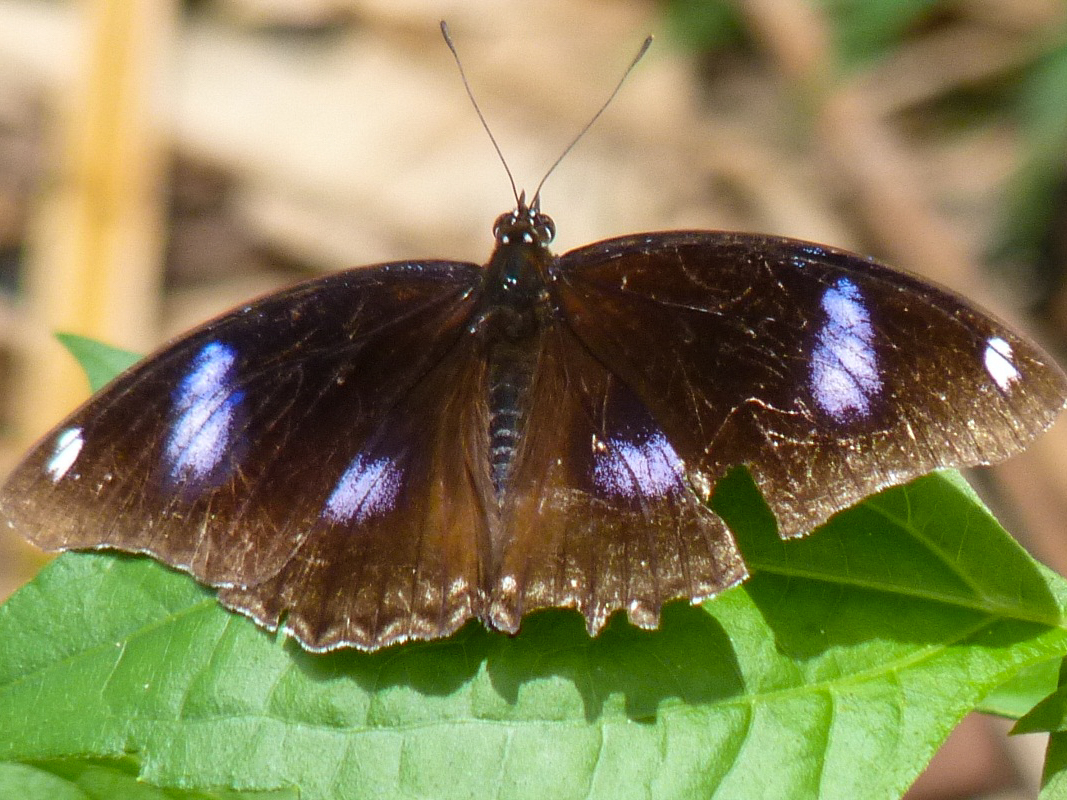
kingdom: Animalia
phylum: Arthropoda
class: Insecta
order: Lepidoptera
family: Nymphalidae
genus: Hypolimnas
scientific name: Hypolimnas bolina
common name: Great eggfly
